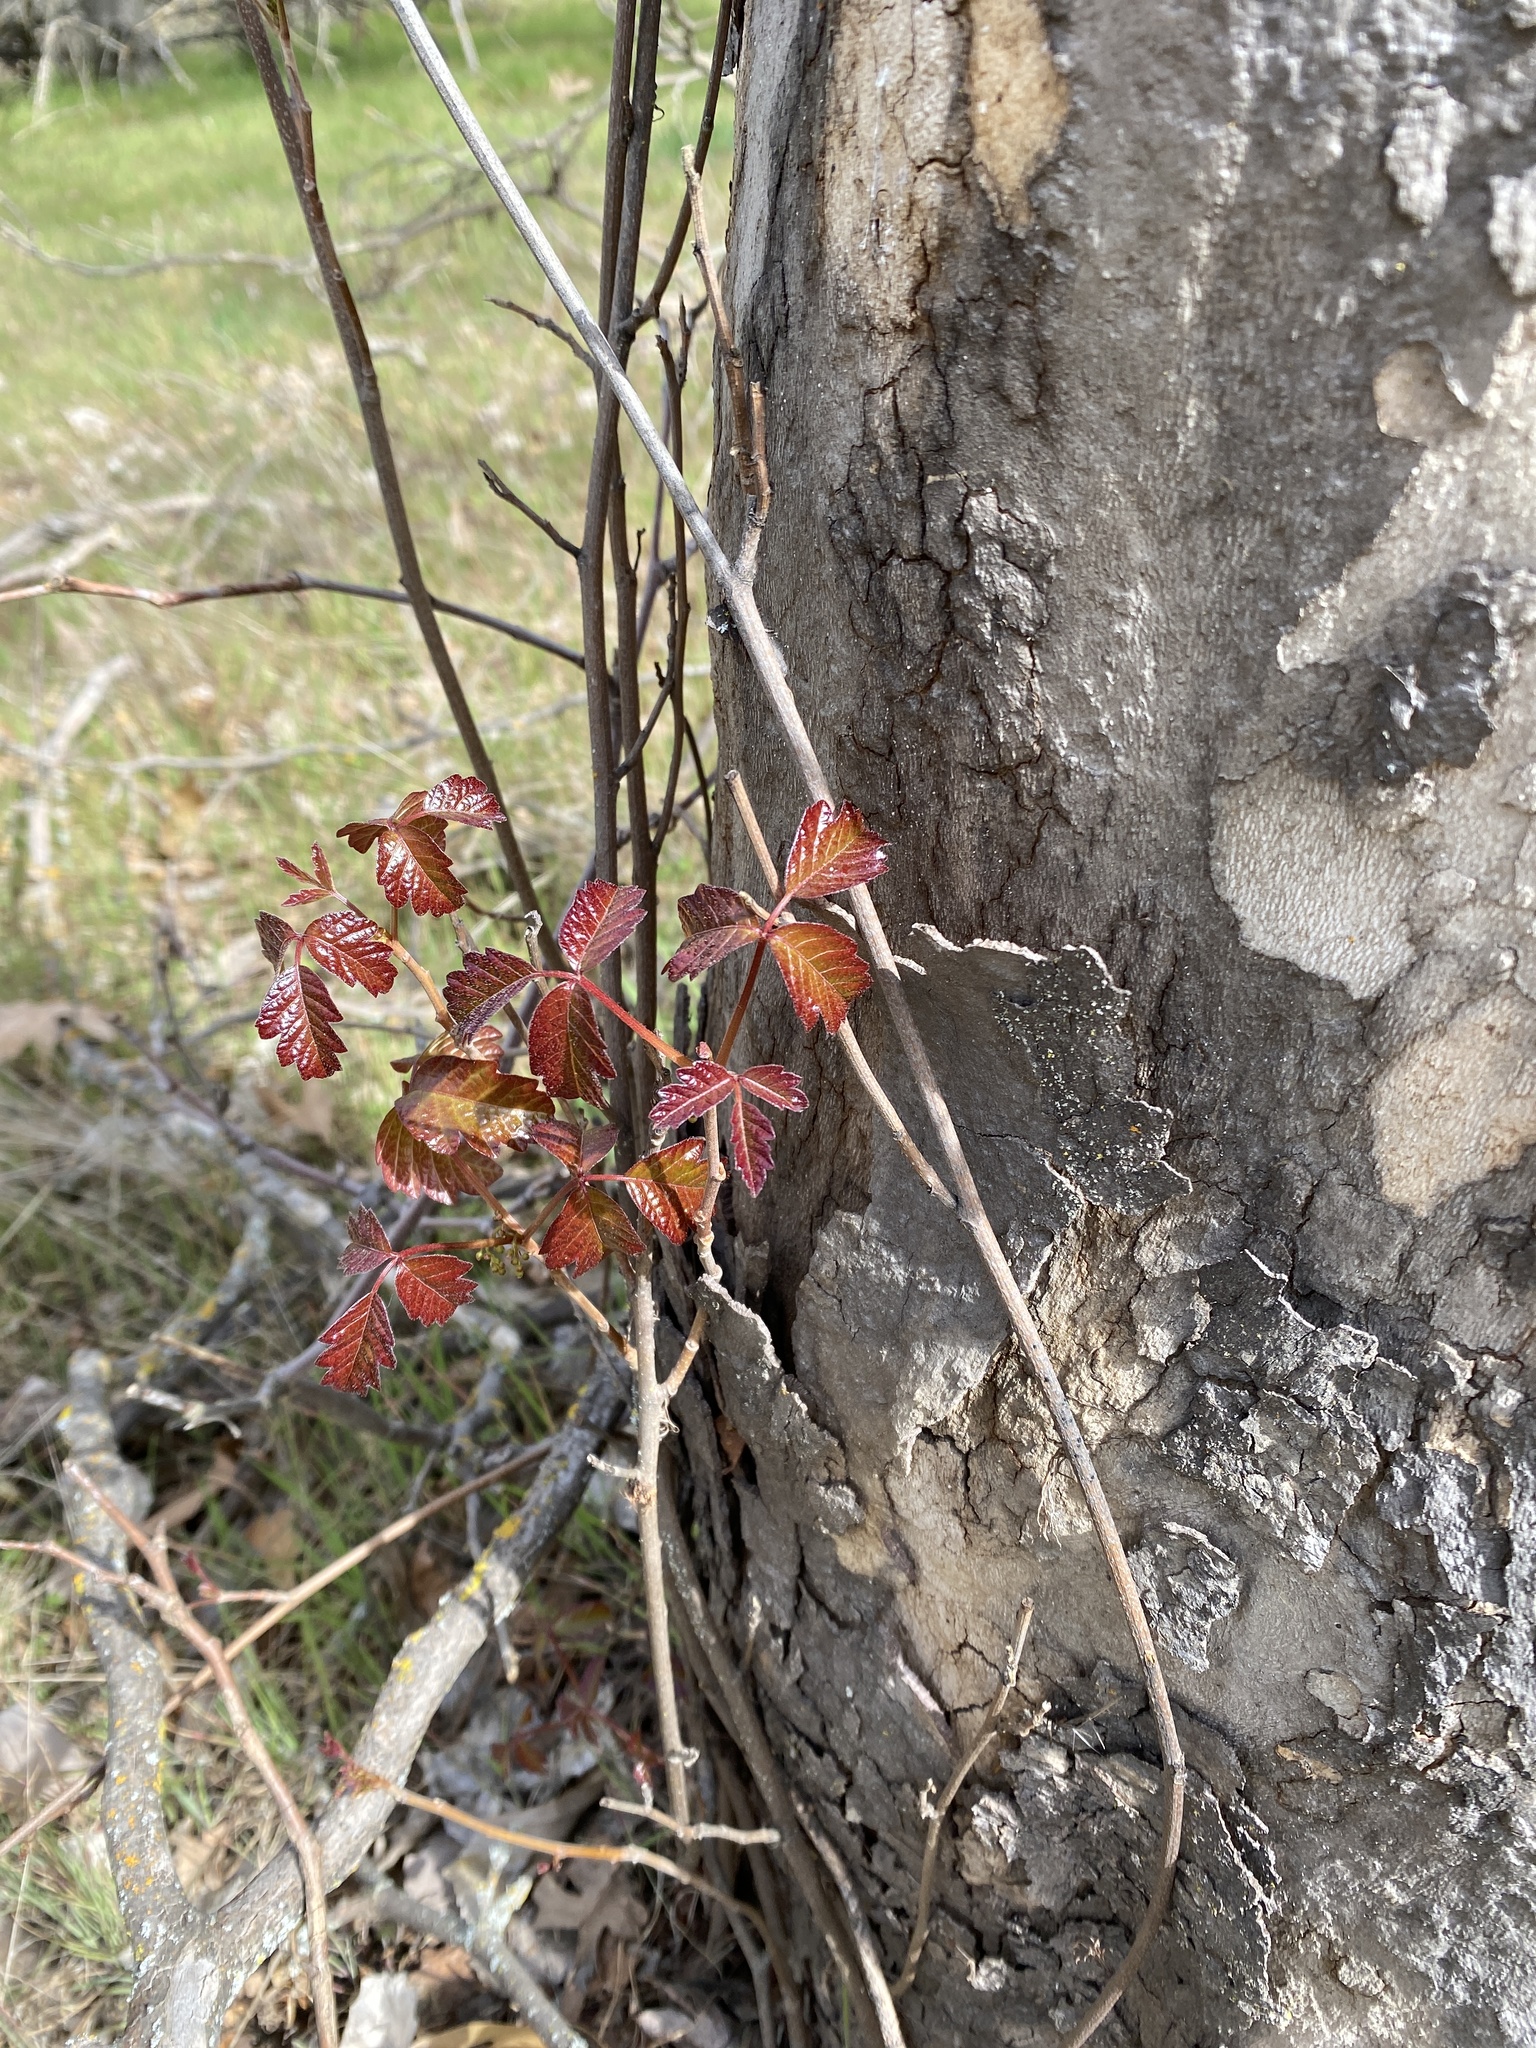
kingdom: Plantae
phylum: Tracheophyta
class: Magnoliopsida
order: Sapindales
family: Anacardiaceae
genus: Toxicodendron
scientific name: Toxicodendron diversilobum
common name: Pacific poison-oak
